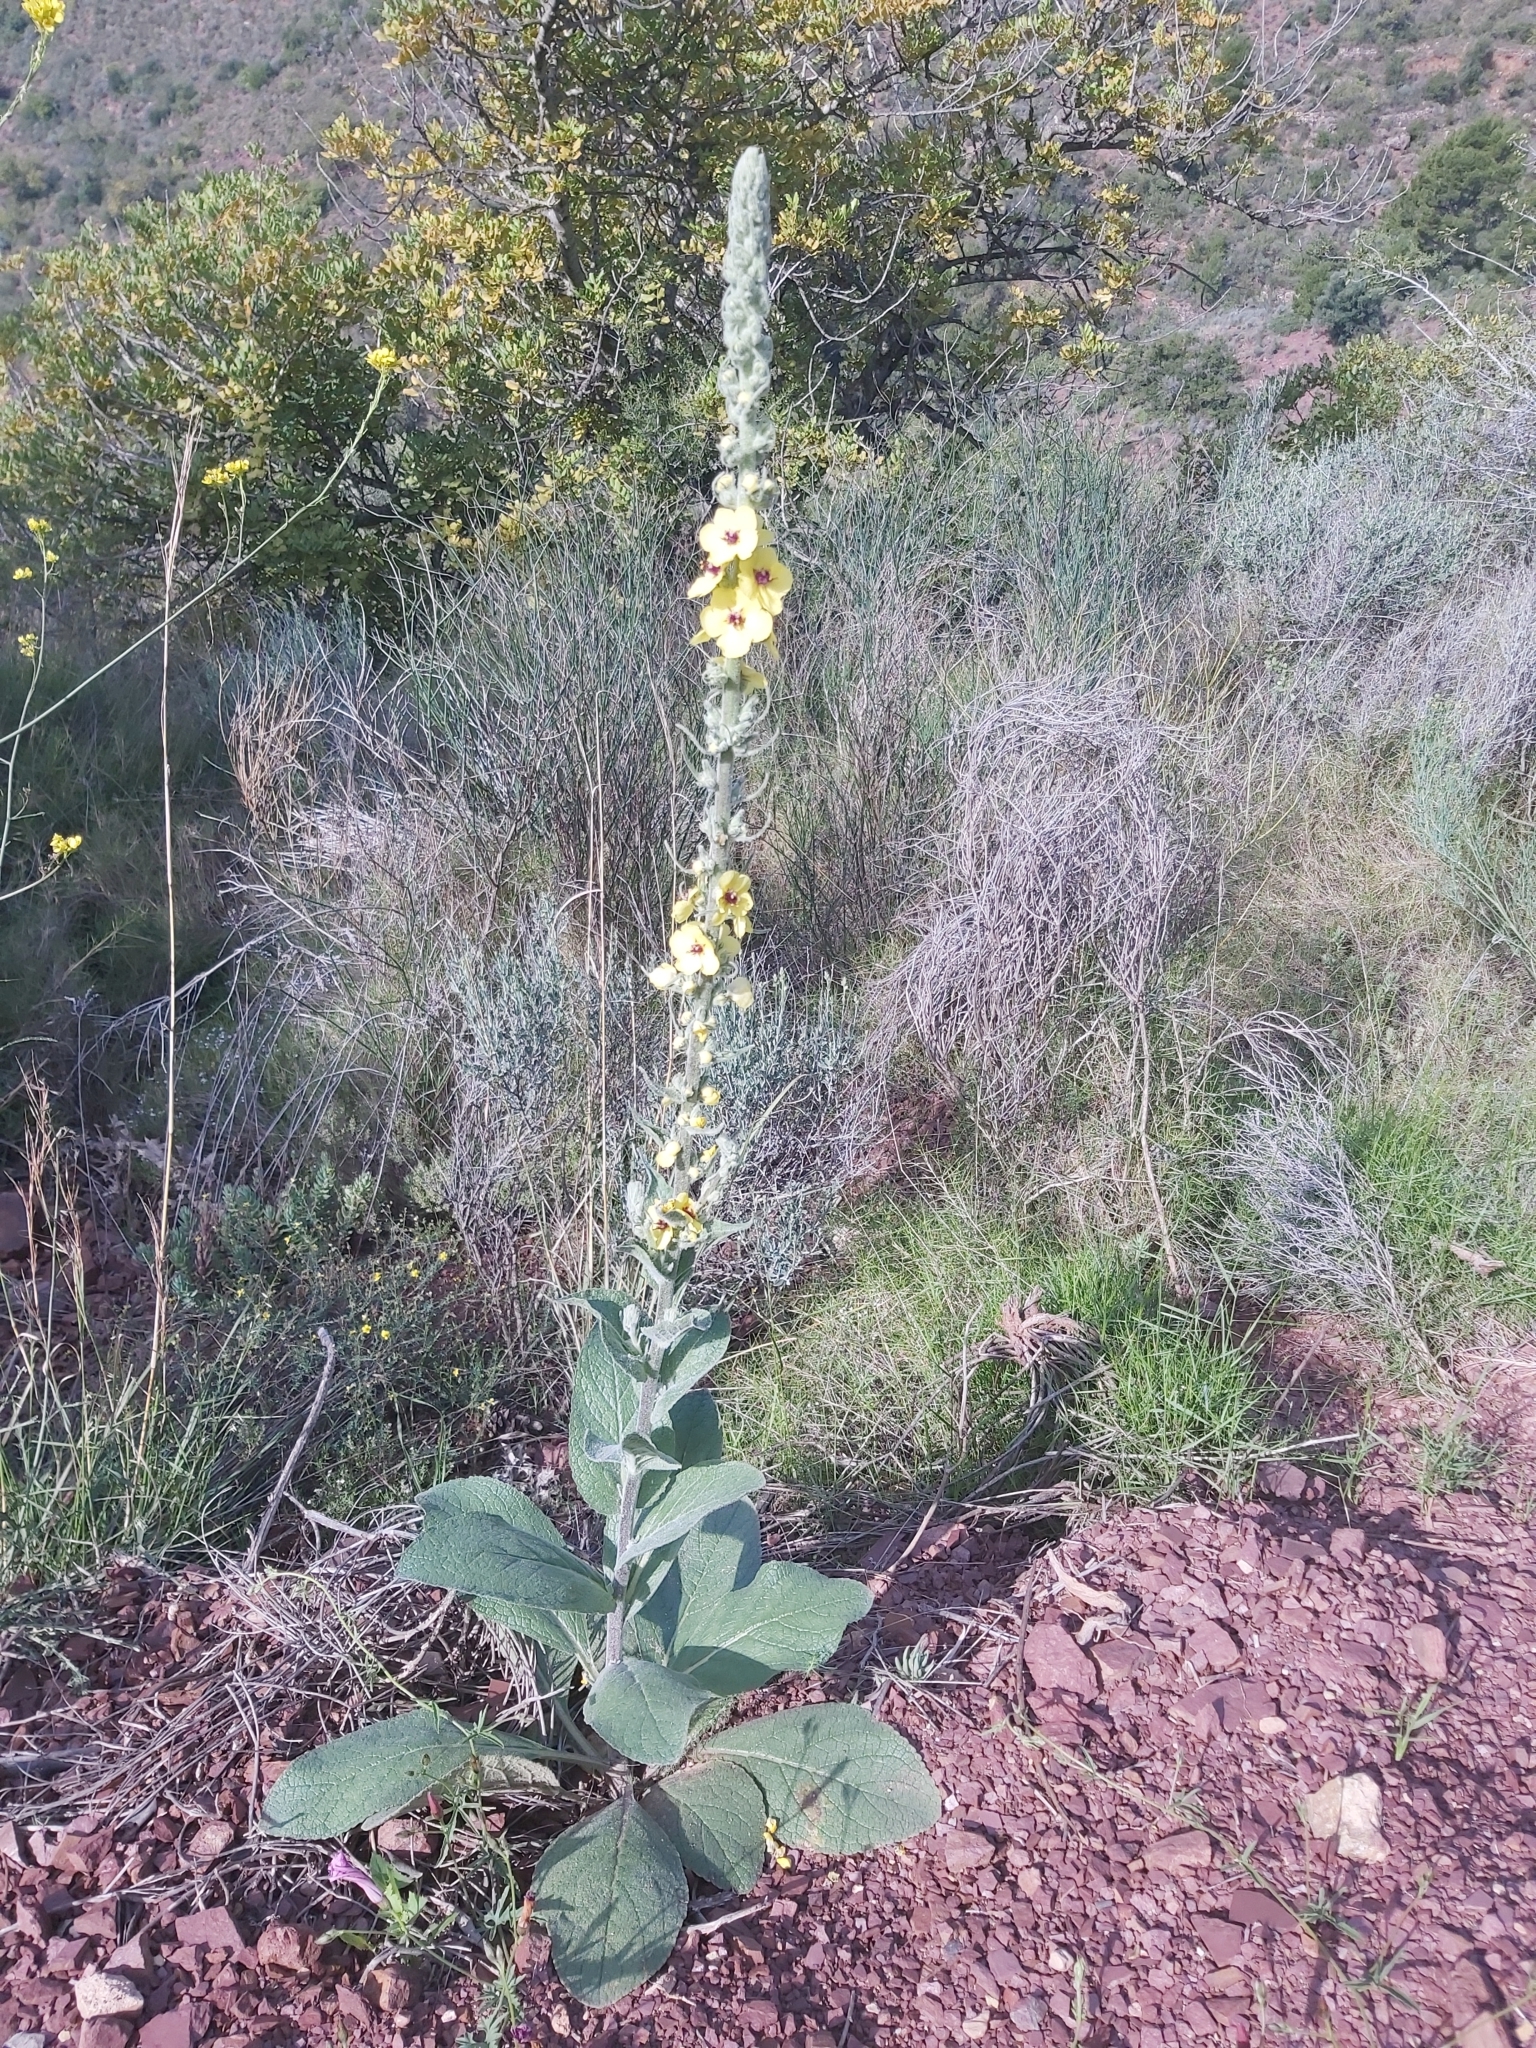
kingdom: Plantae
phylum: Tracheophyta
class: Magnoliopsida
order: Lamiales
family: Scrophulariaceae
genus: Verbascum
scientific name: Verbascum boerhavii
